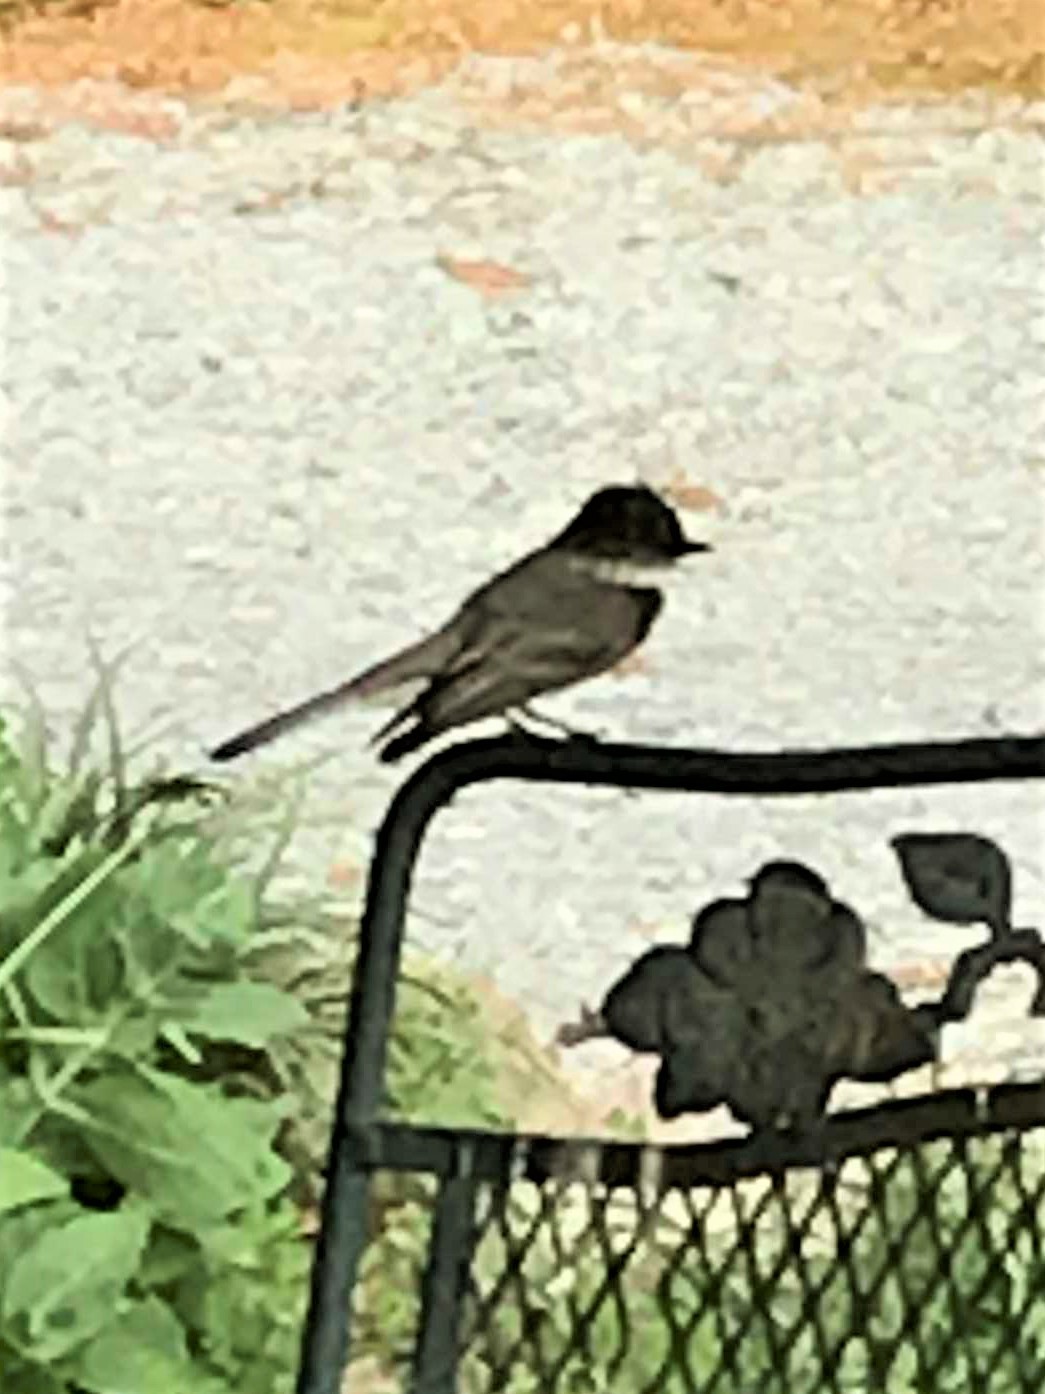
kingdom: Animalia
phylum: Chordata
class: Aves
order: Passeriformes
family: Tyrannidae
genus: Sayornis
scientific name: Sayornis phoebe
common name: Eastern phoebe
